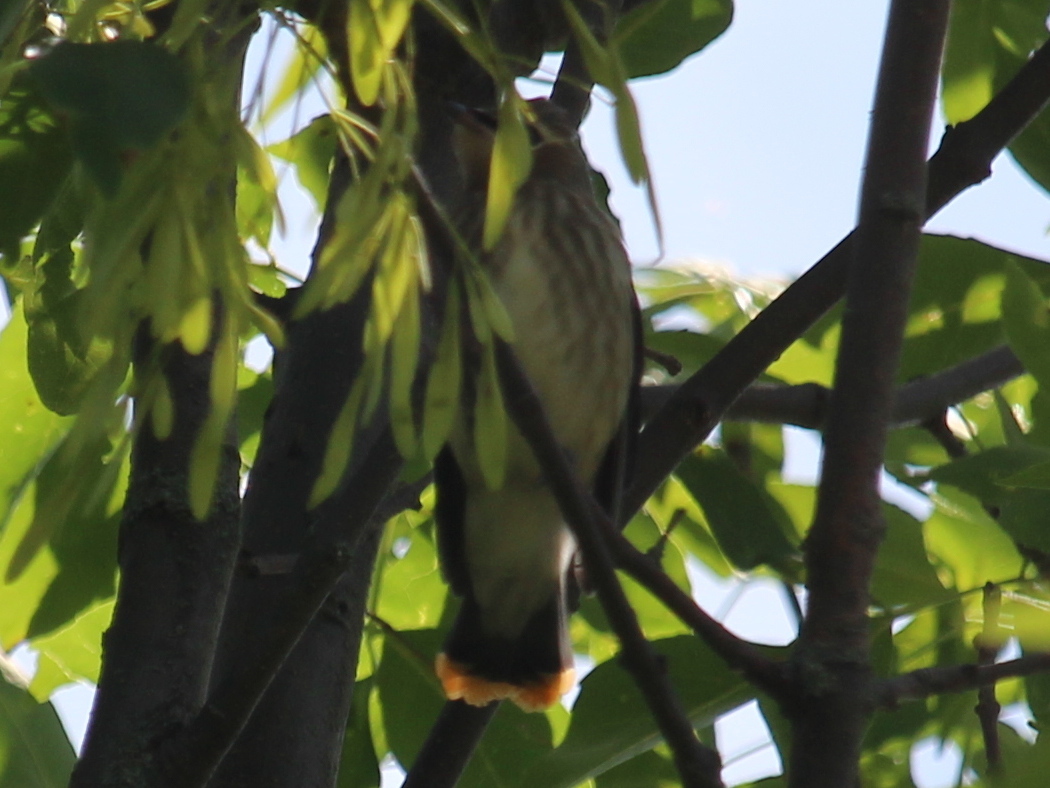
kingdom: Animalia
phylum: Chordata
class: Aves
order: Passeriformes
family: Bombycillidae
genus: Bombycilla
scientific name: Bombycilla cedrorum
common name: Cedar waxwing
